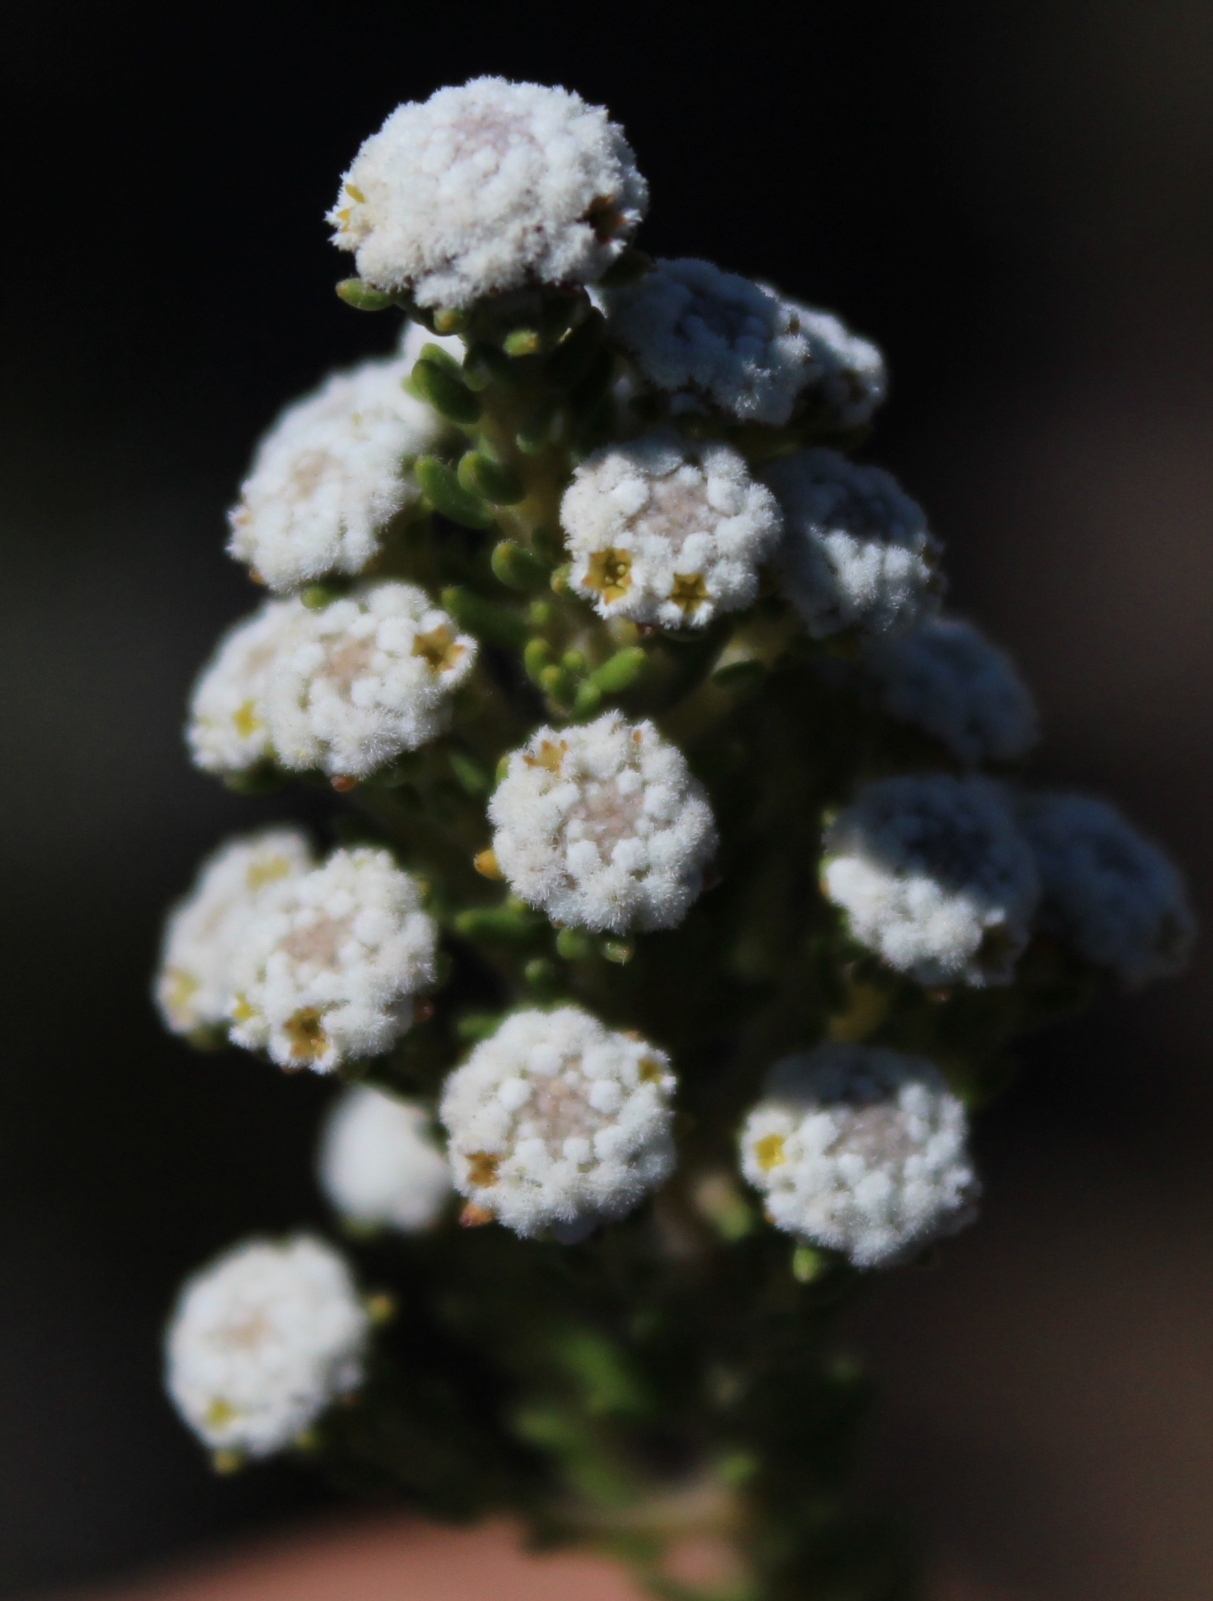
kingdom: Plantae
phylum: Tracheophyta
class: Magnoliopsida
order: Rosales
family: Rhamnaceae
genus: Phylica
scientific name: Phylica ericoides
